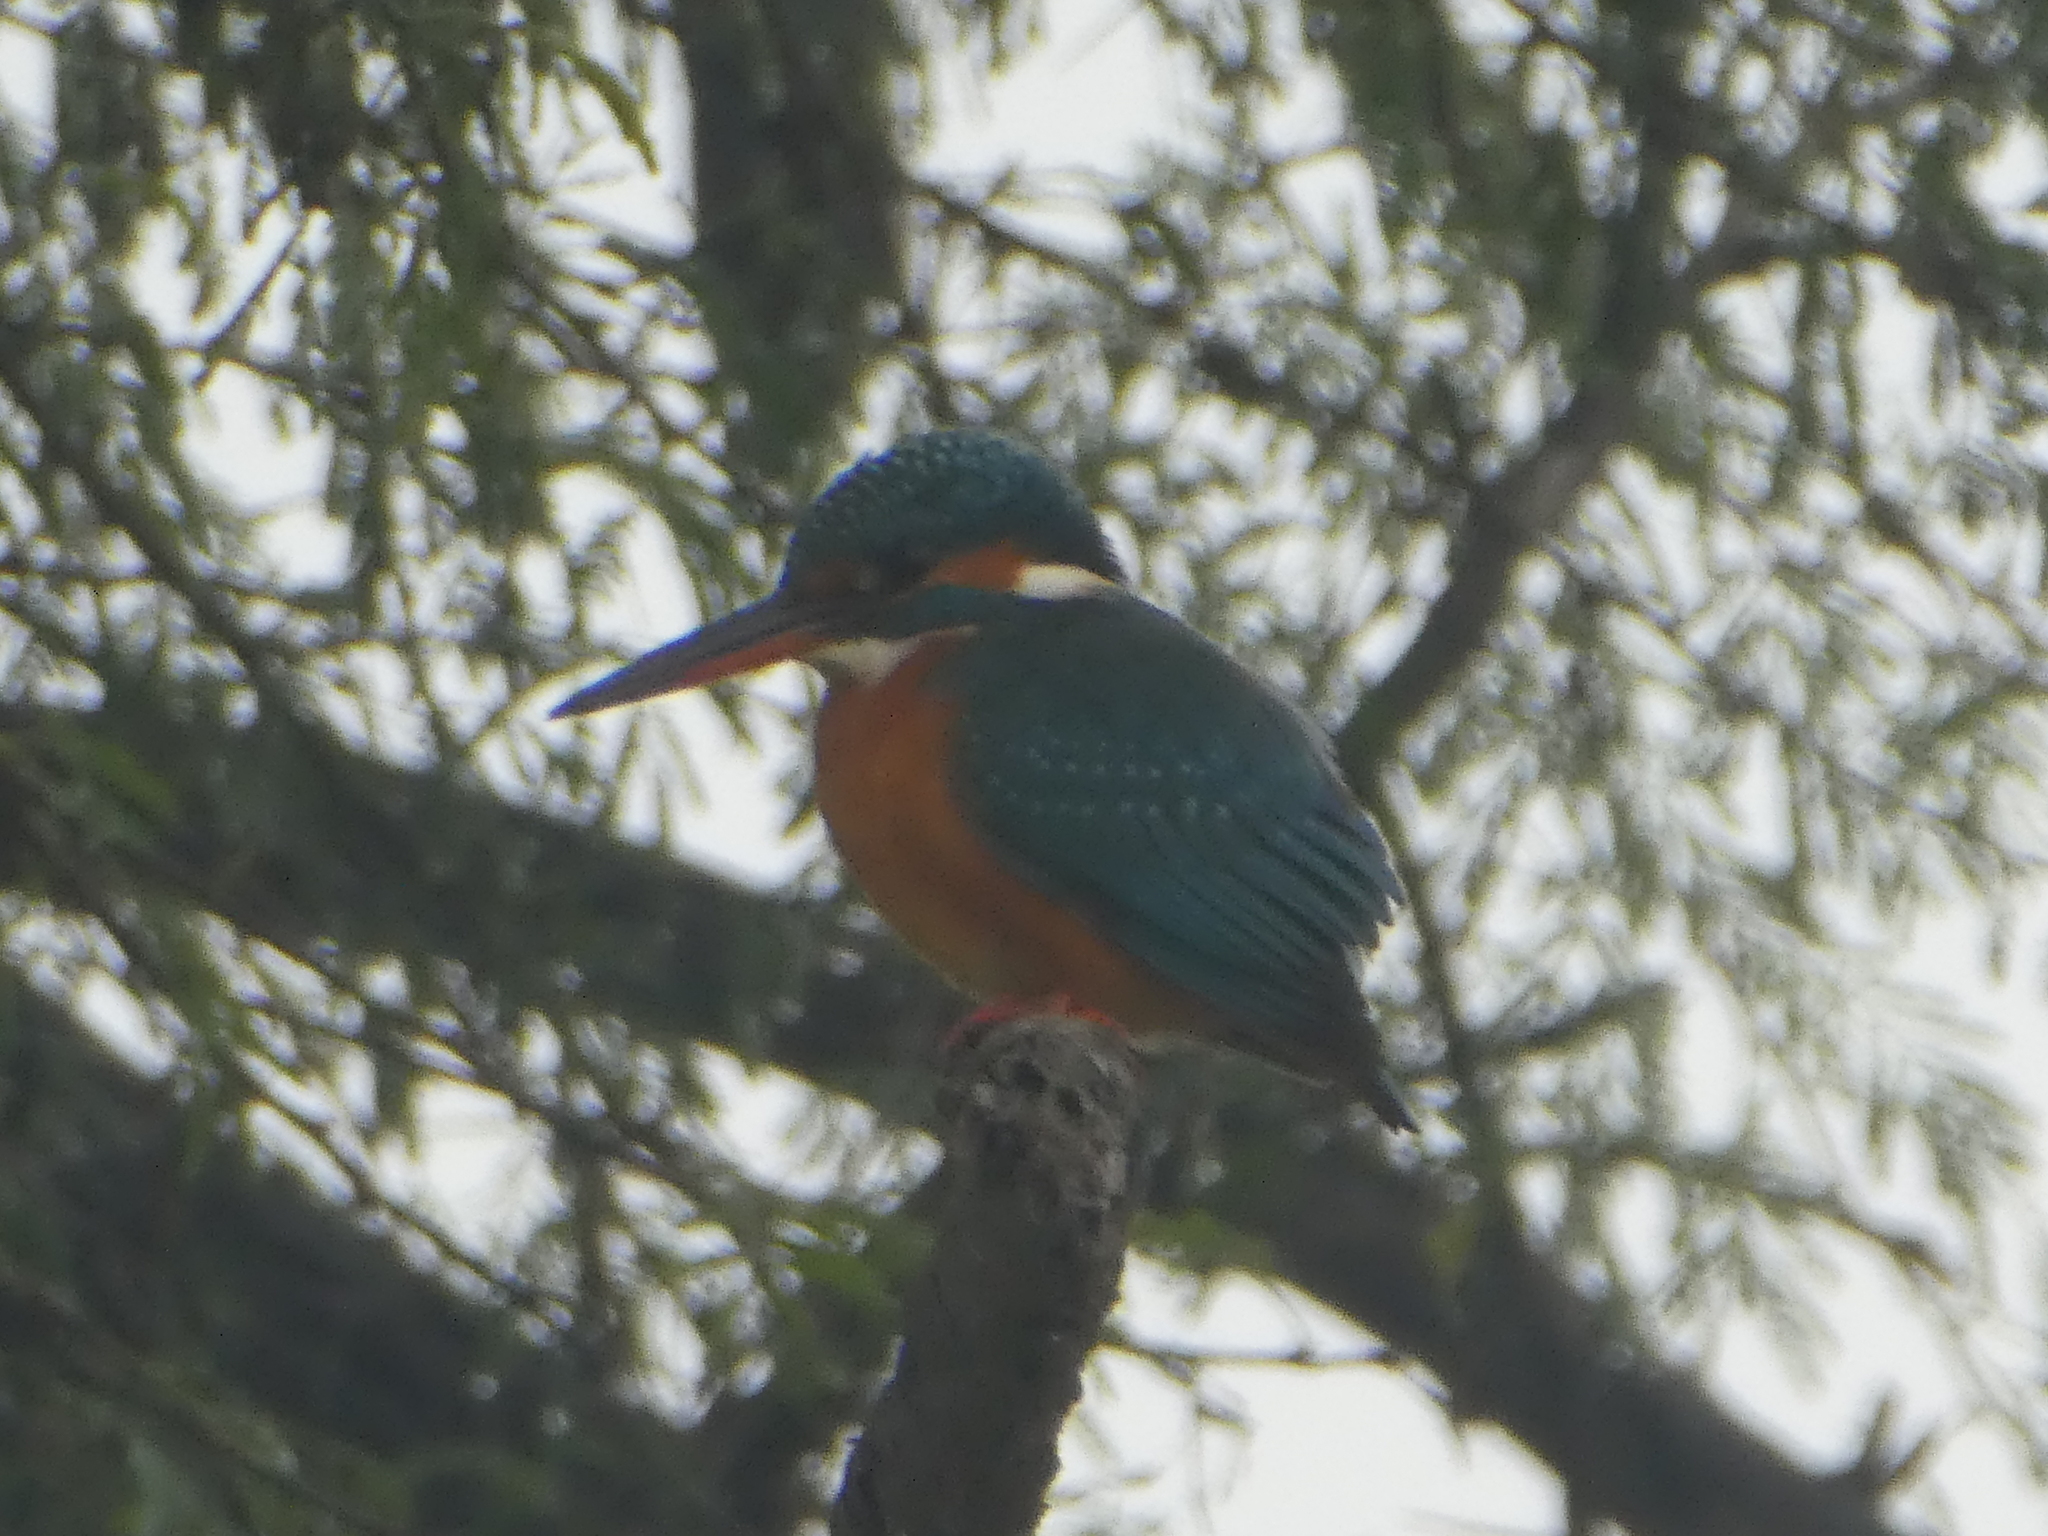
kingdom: Animalia
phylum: Chordata
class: Aves
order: Coraciiformes
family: Alcedinidae
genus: Alcedo
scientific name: Alcedo atthis
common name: Common kingfisher
